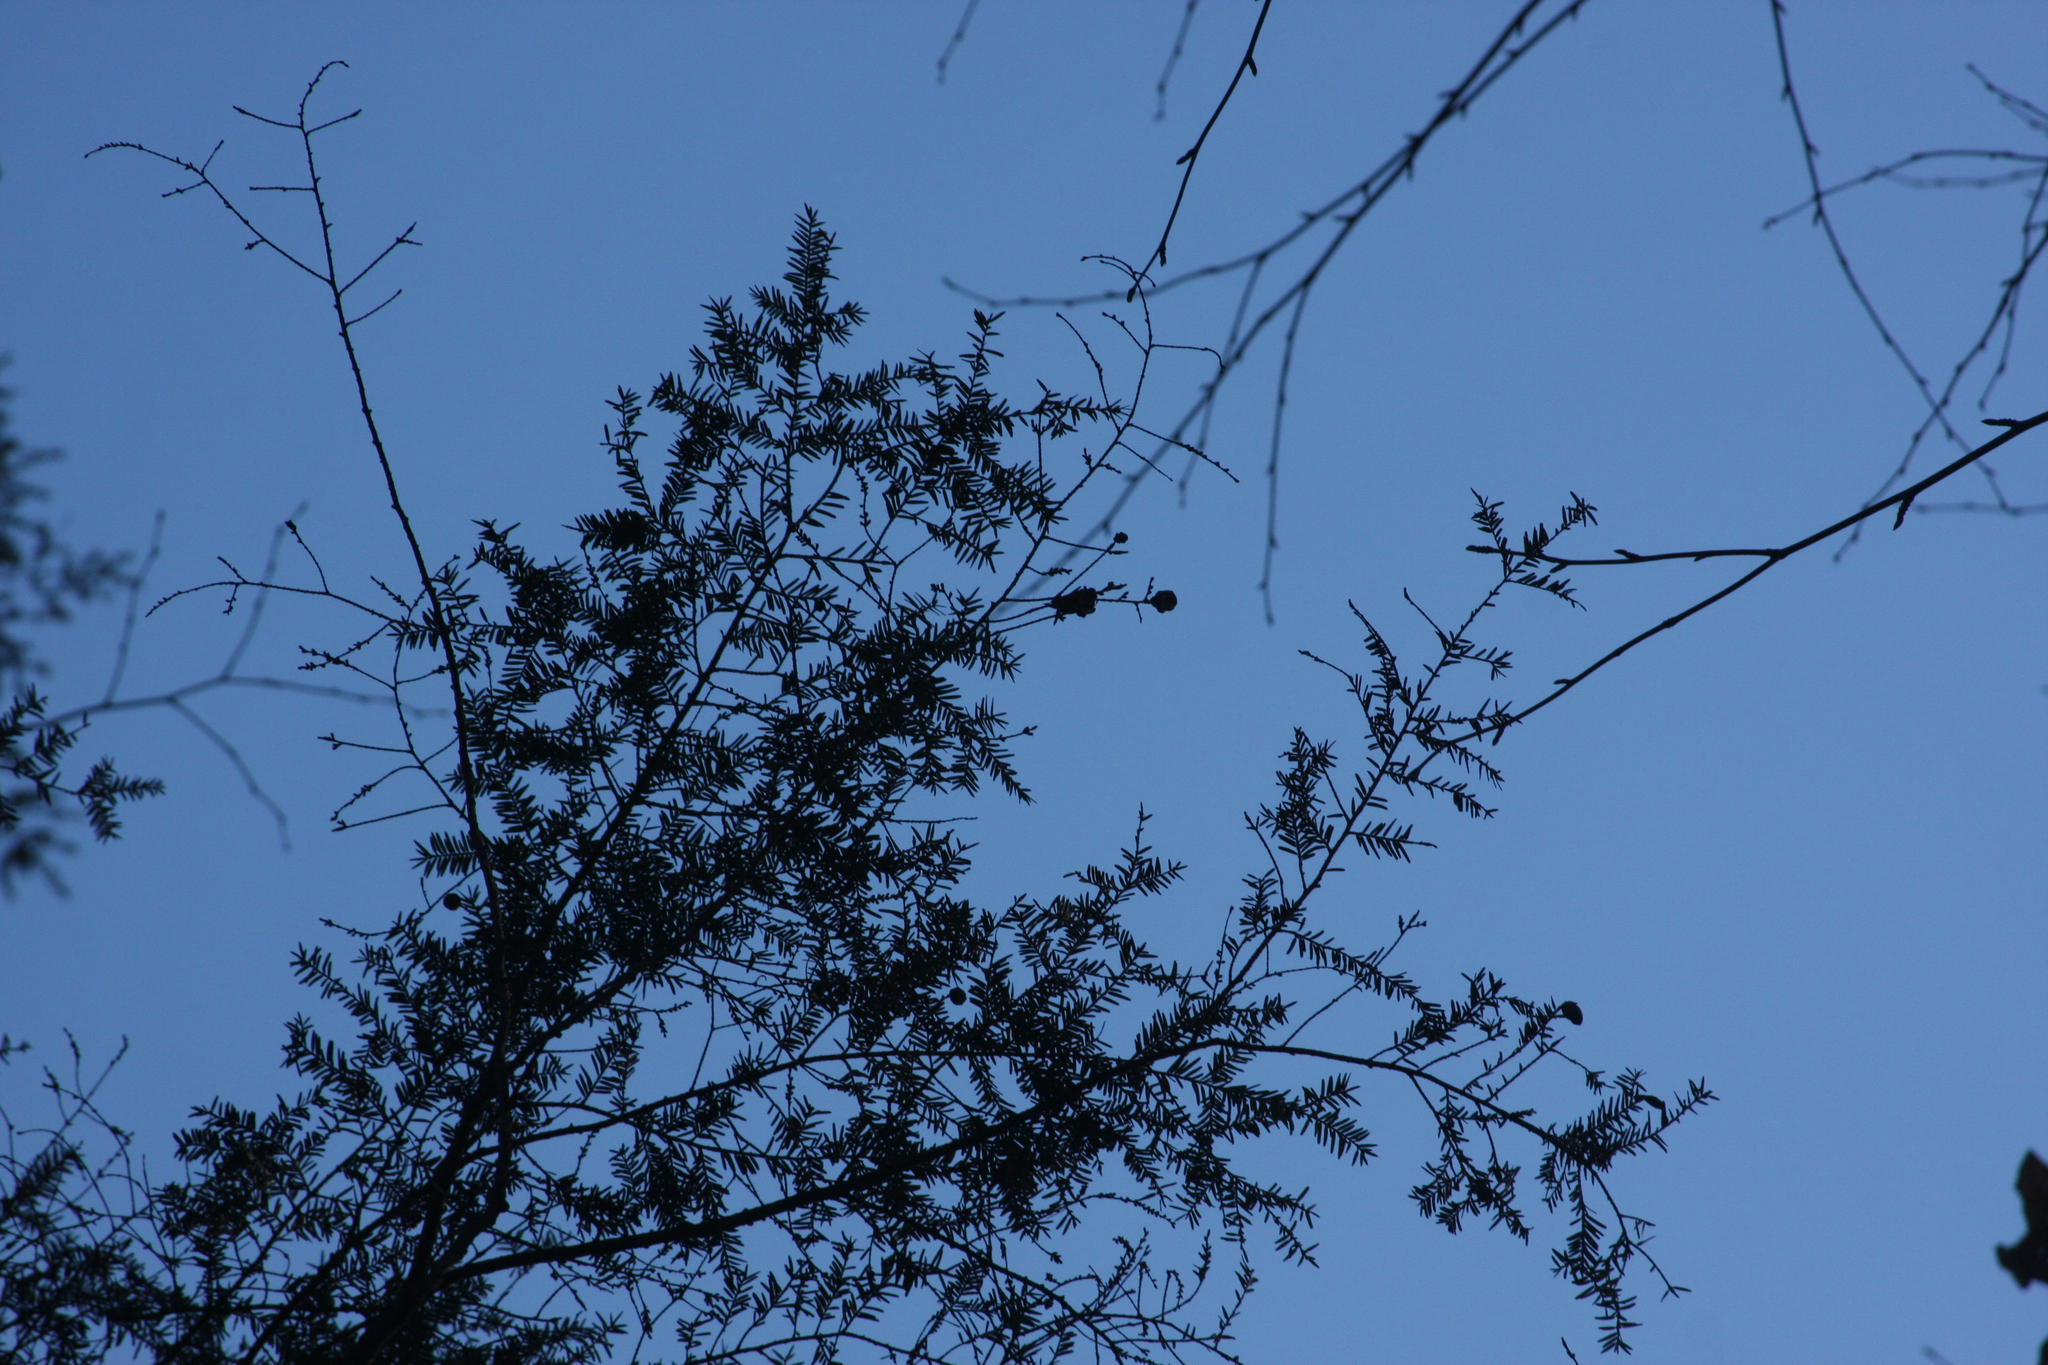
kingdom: Plantae
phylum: Tracheophyta
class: Pinopsida
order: Pinales
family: Pinaceae
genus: Tsuga
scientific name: Tsuga canadensis
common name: Eastern hemlock
